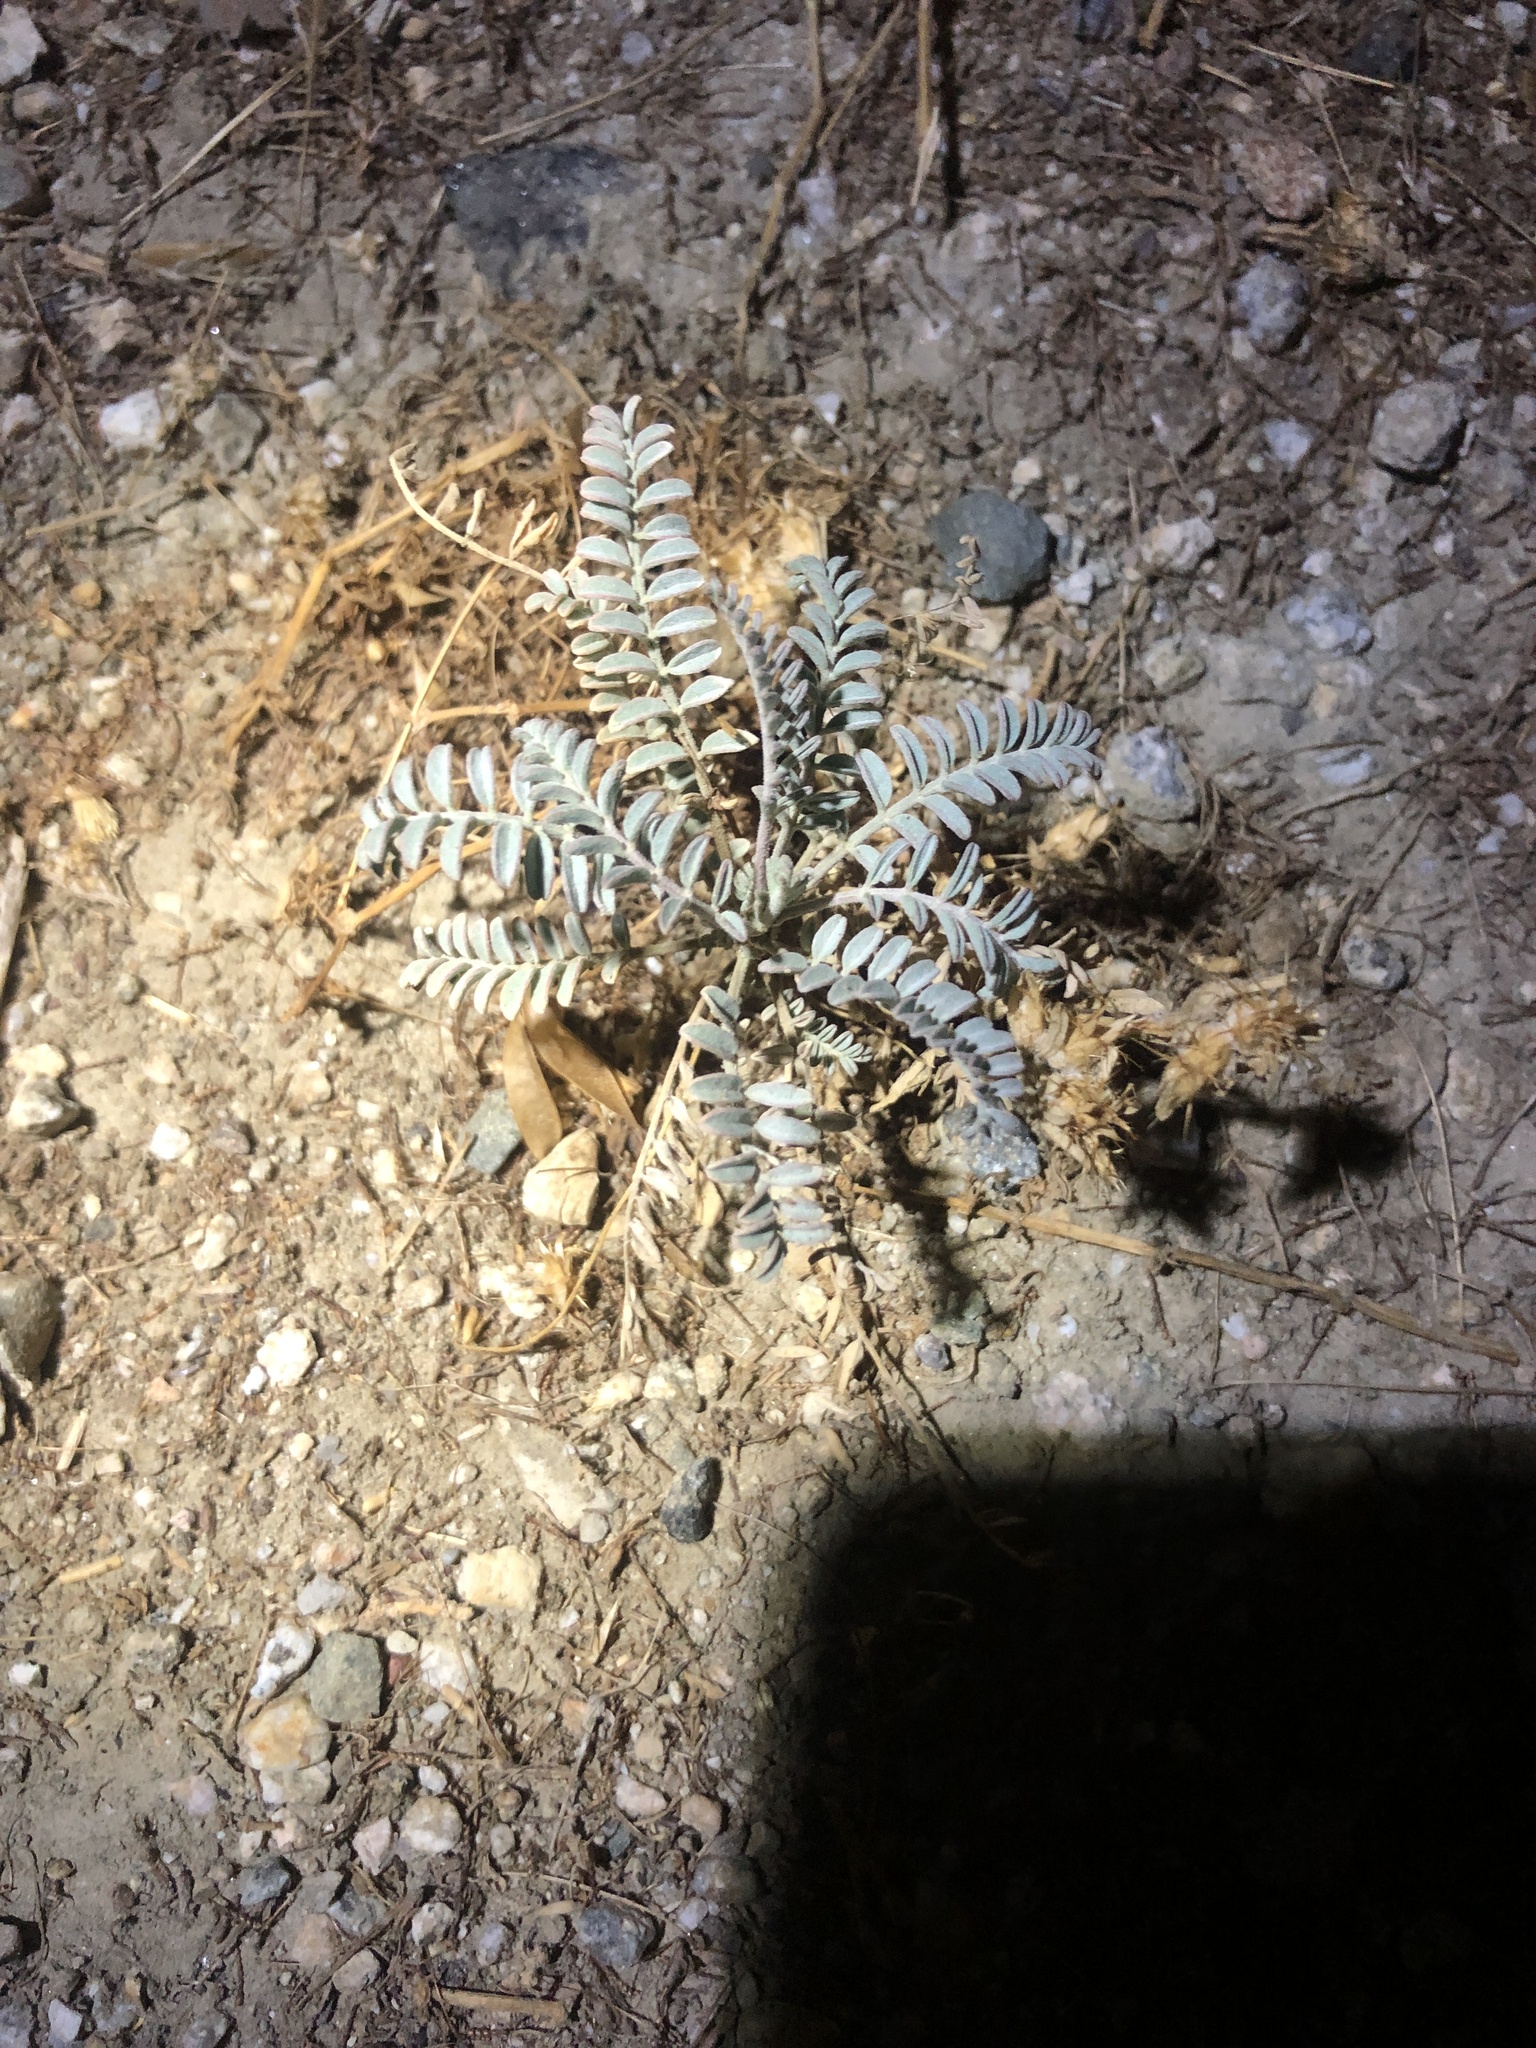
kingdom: Plantae
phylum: Tracheophyta
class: Magnoliopsida
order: Fabales
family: Fabaceae
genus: Astragalus
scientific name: Astragalus trichopodus
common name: Santa barbara milk-vetch
